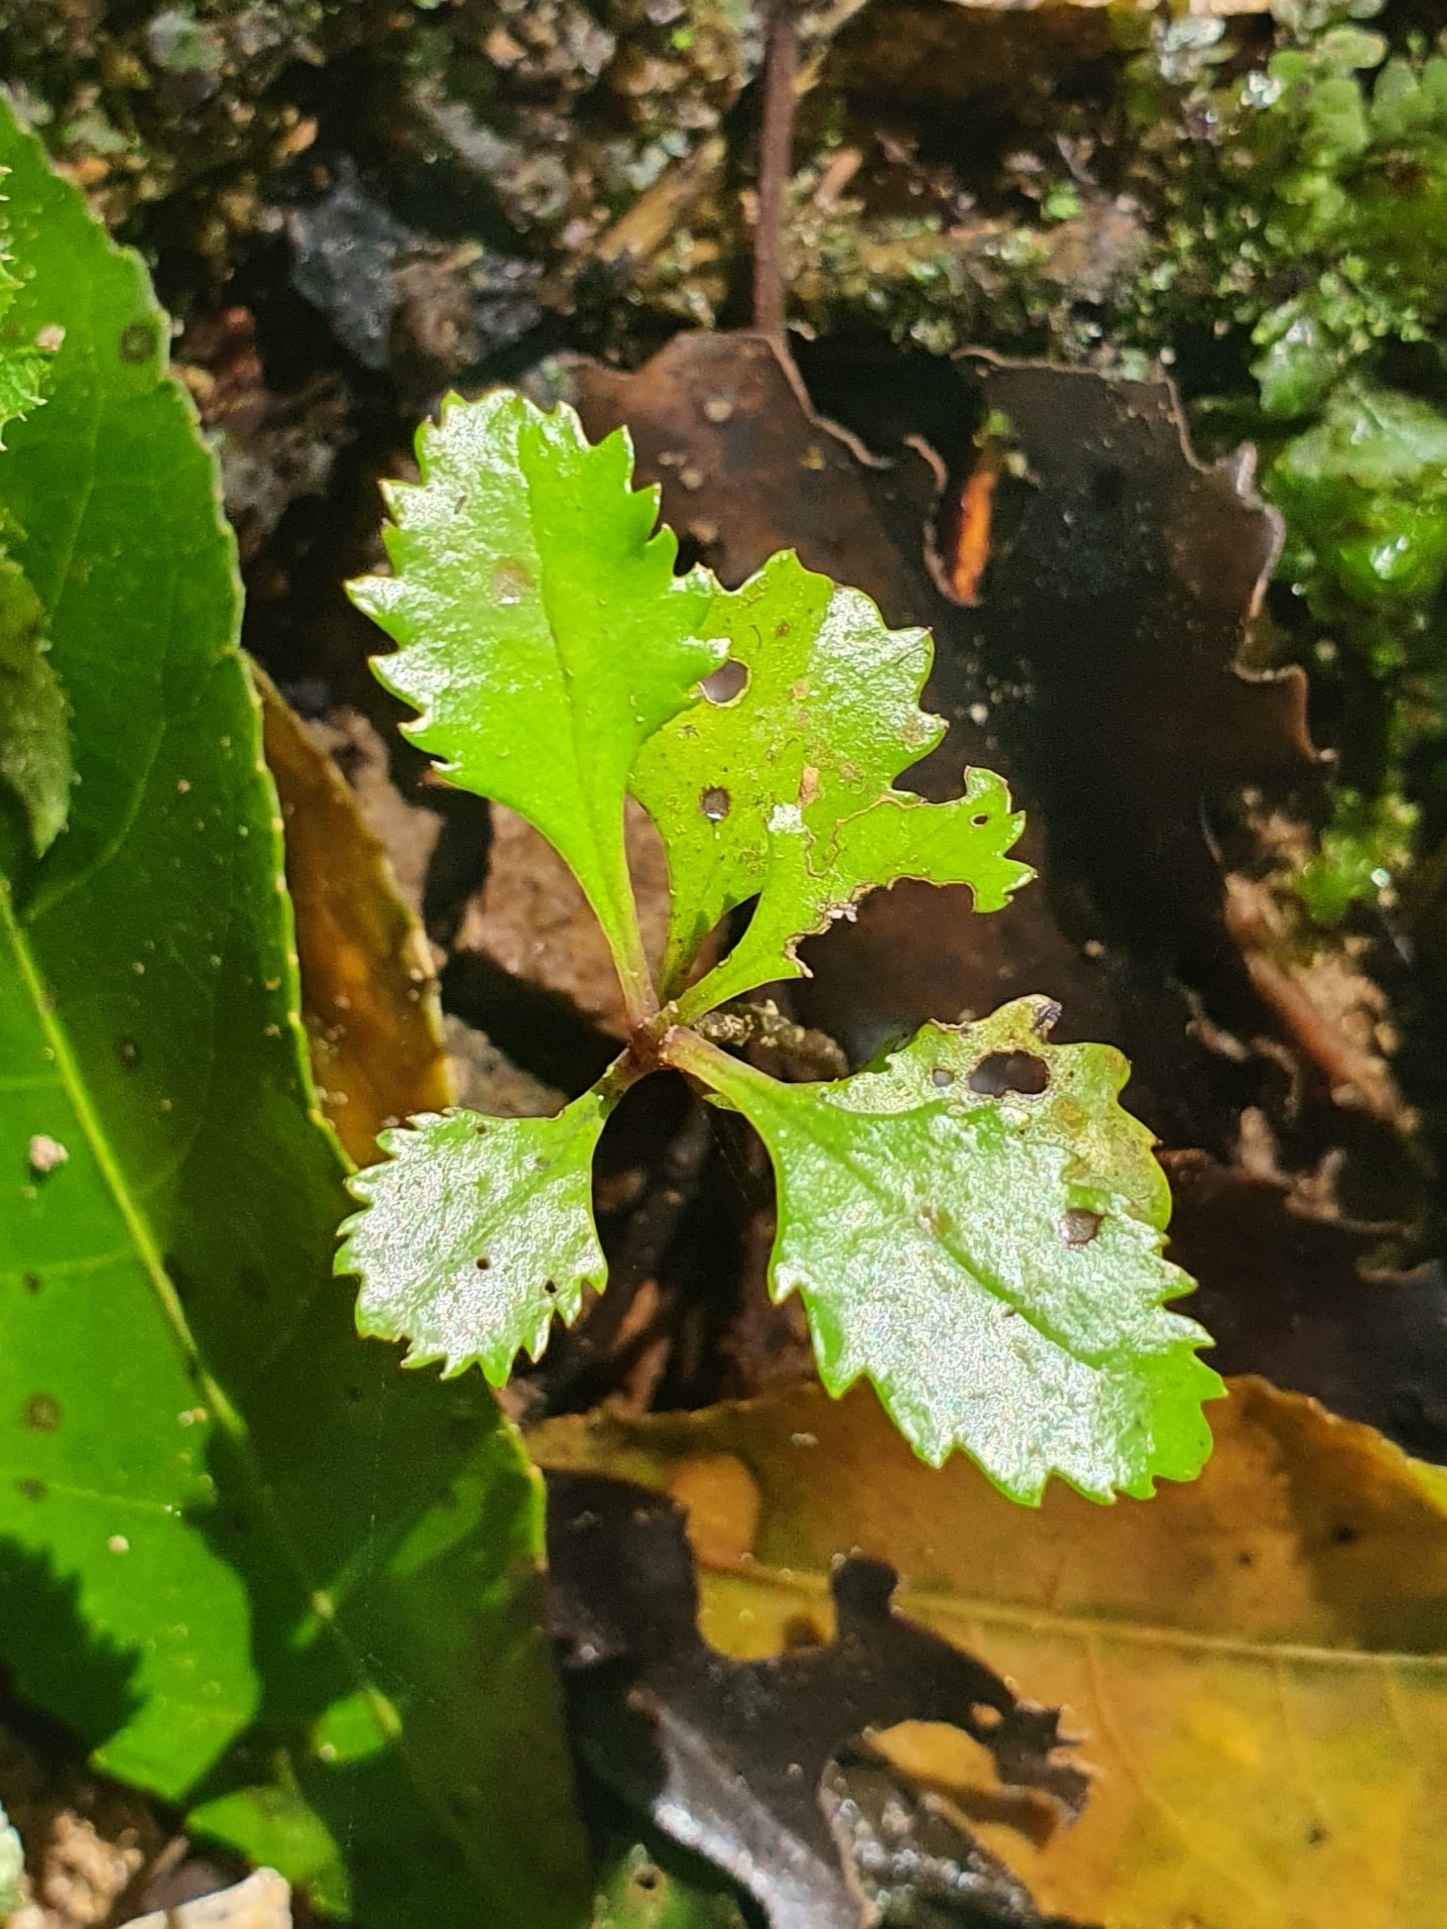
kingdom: Plantae
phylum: Tracheophyta
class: Magnoliopsida
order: Laurales
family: Atherospermataceae
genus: Laurelia
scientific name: Laurelia novae-zelandiae
